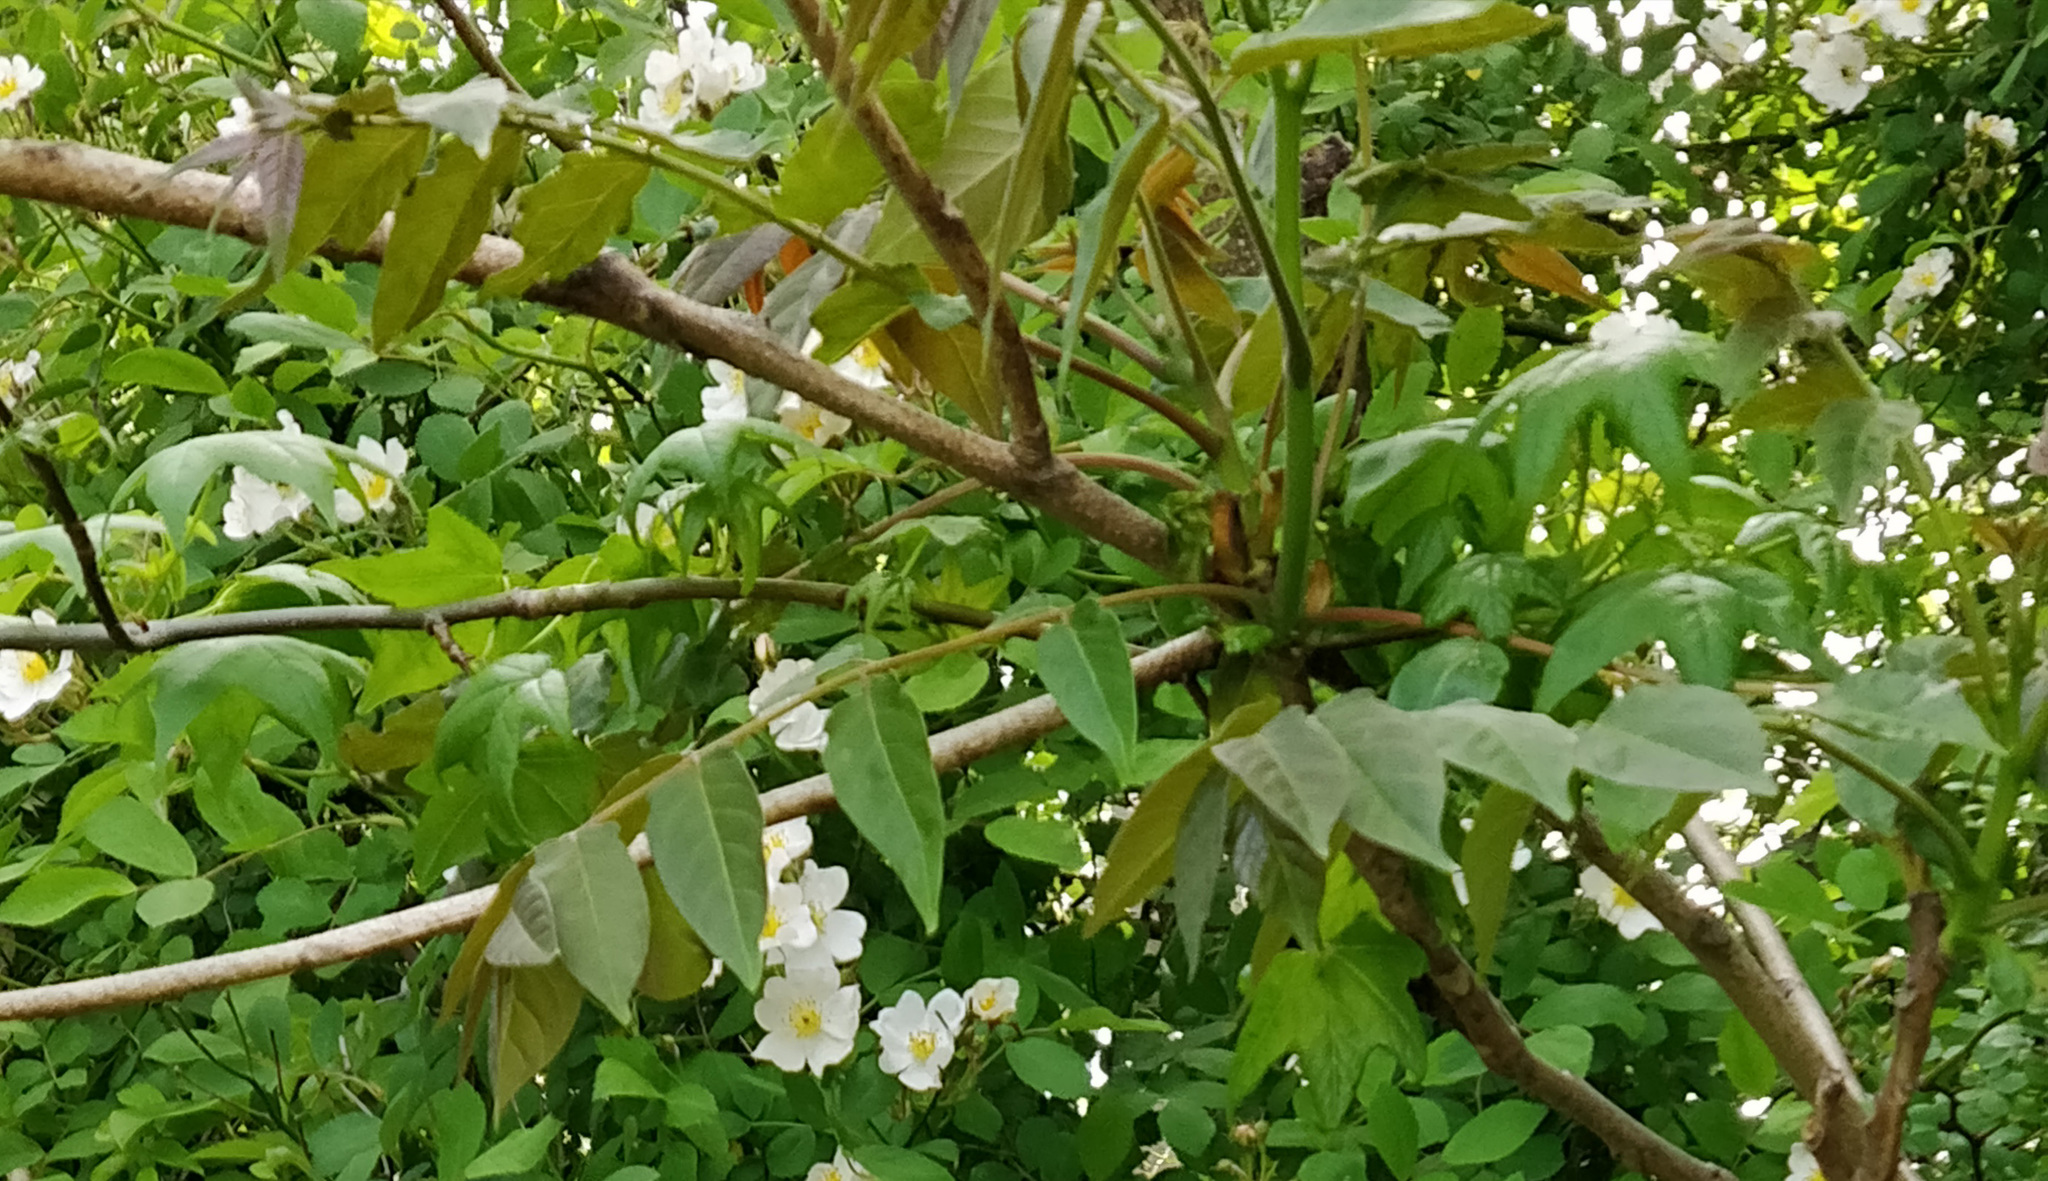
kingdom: Plantae
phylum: Tracheophyta
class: Magnoliopsida
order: Sapindales
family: Simaroubaceae
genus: Ailanthus
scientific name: Ailanthus altissima
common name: Tree-of-heaven
